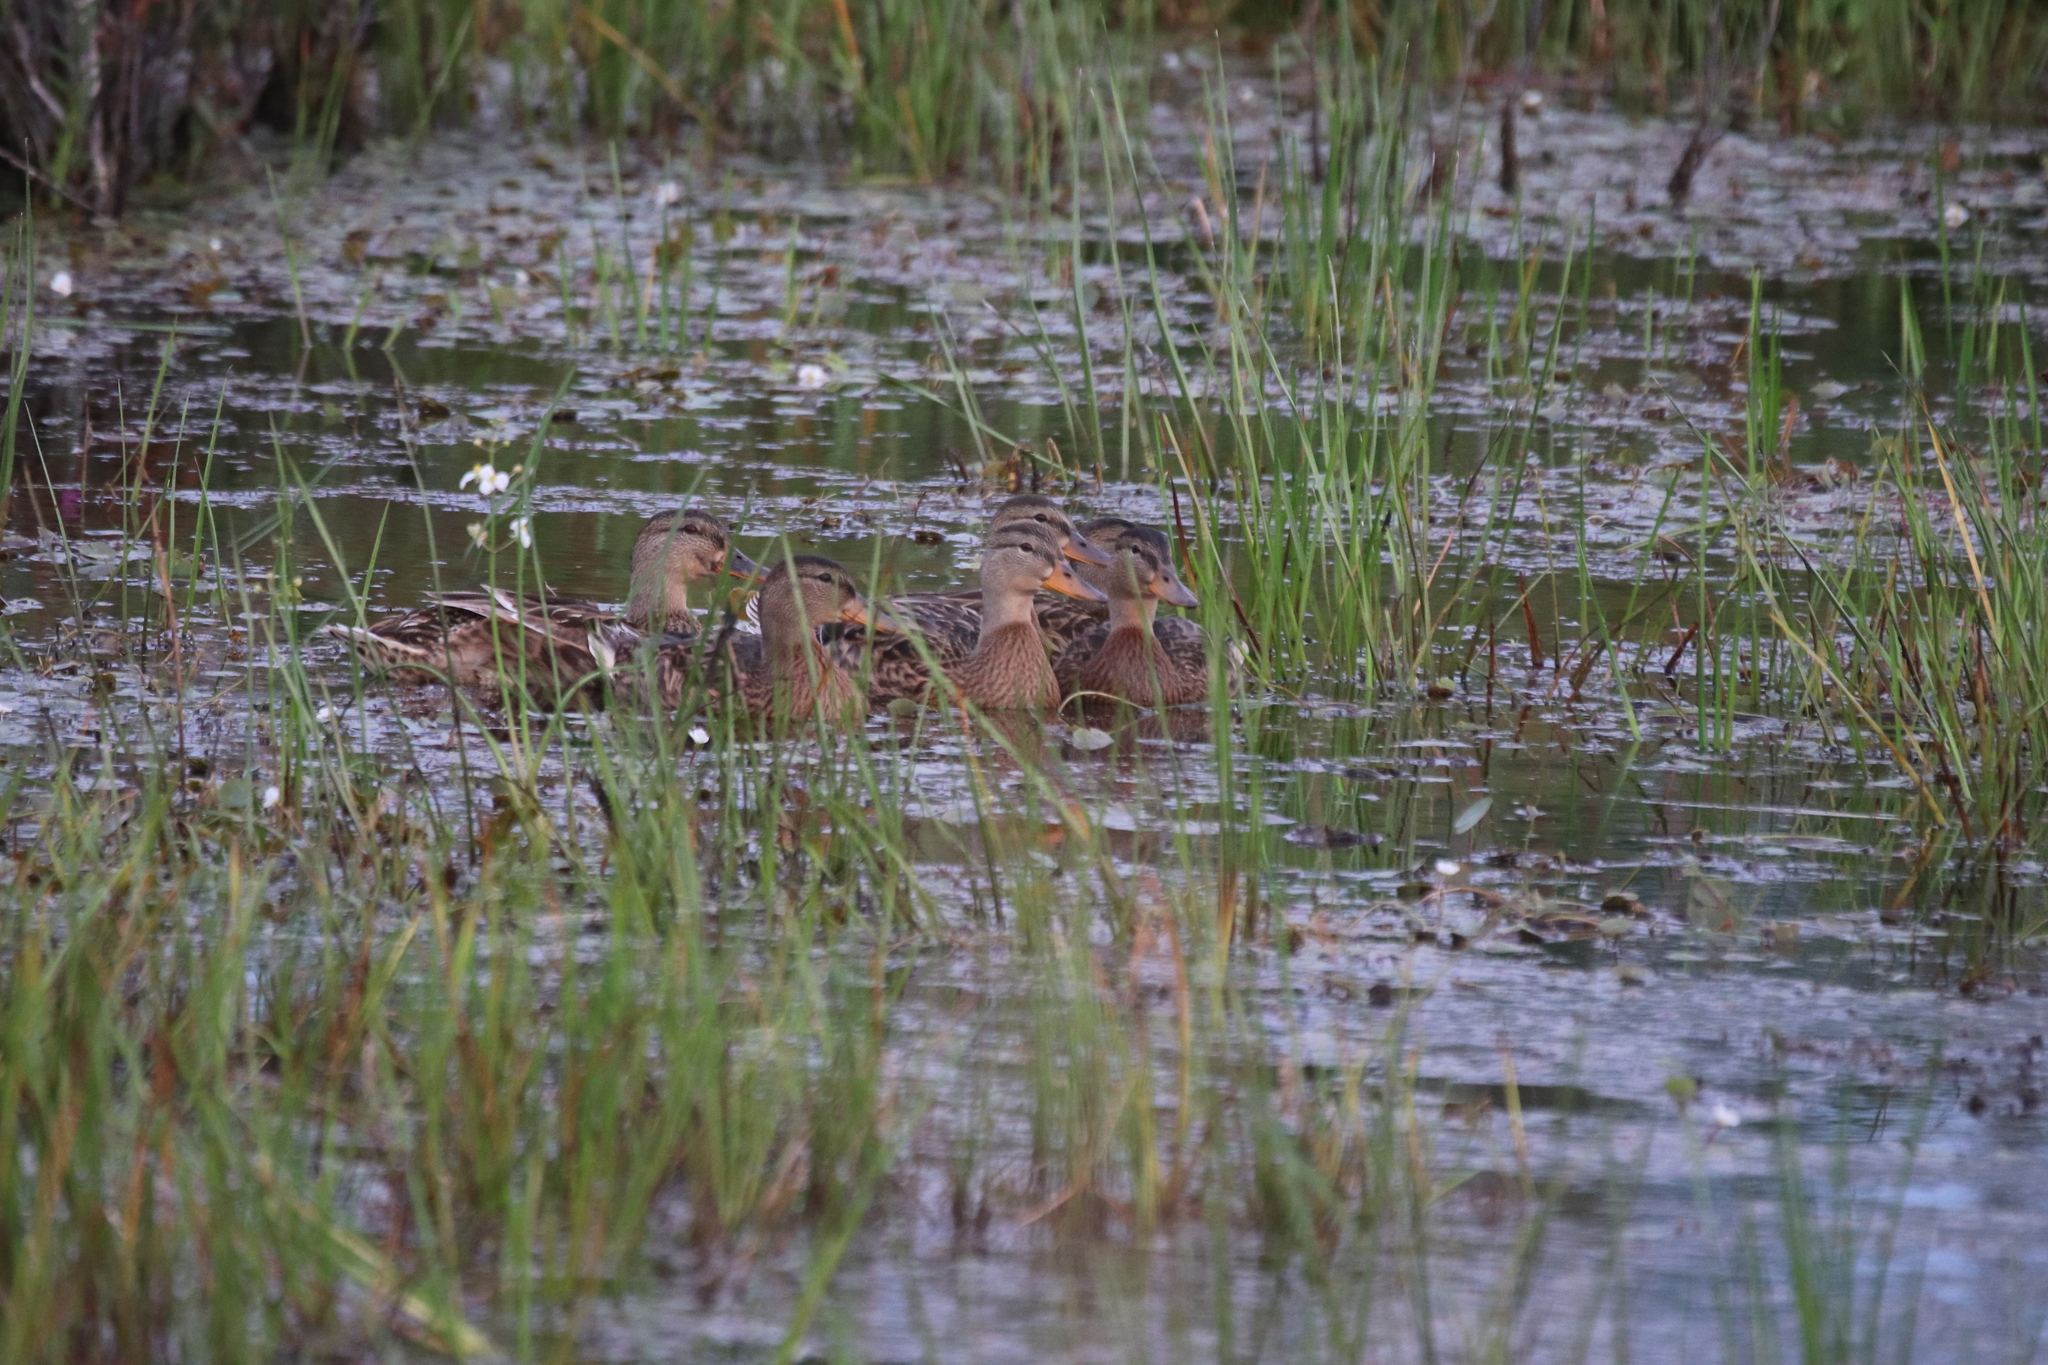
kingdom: Animalia
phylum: Chordata
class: Aves
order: Anseriformes
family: Anatidae
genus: Anas
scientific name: Anas platyrhynchos
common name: Mallard
